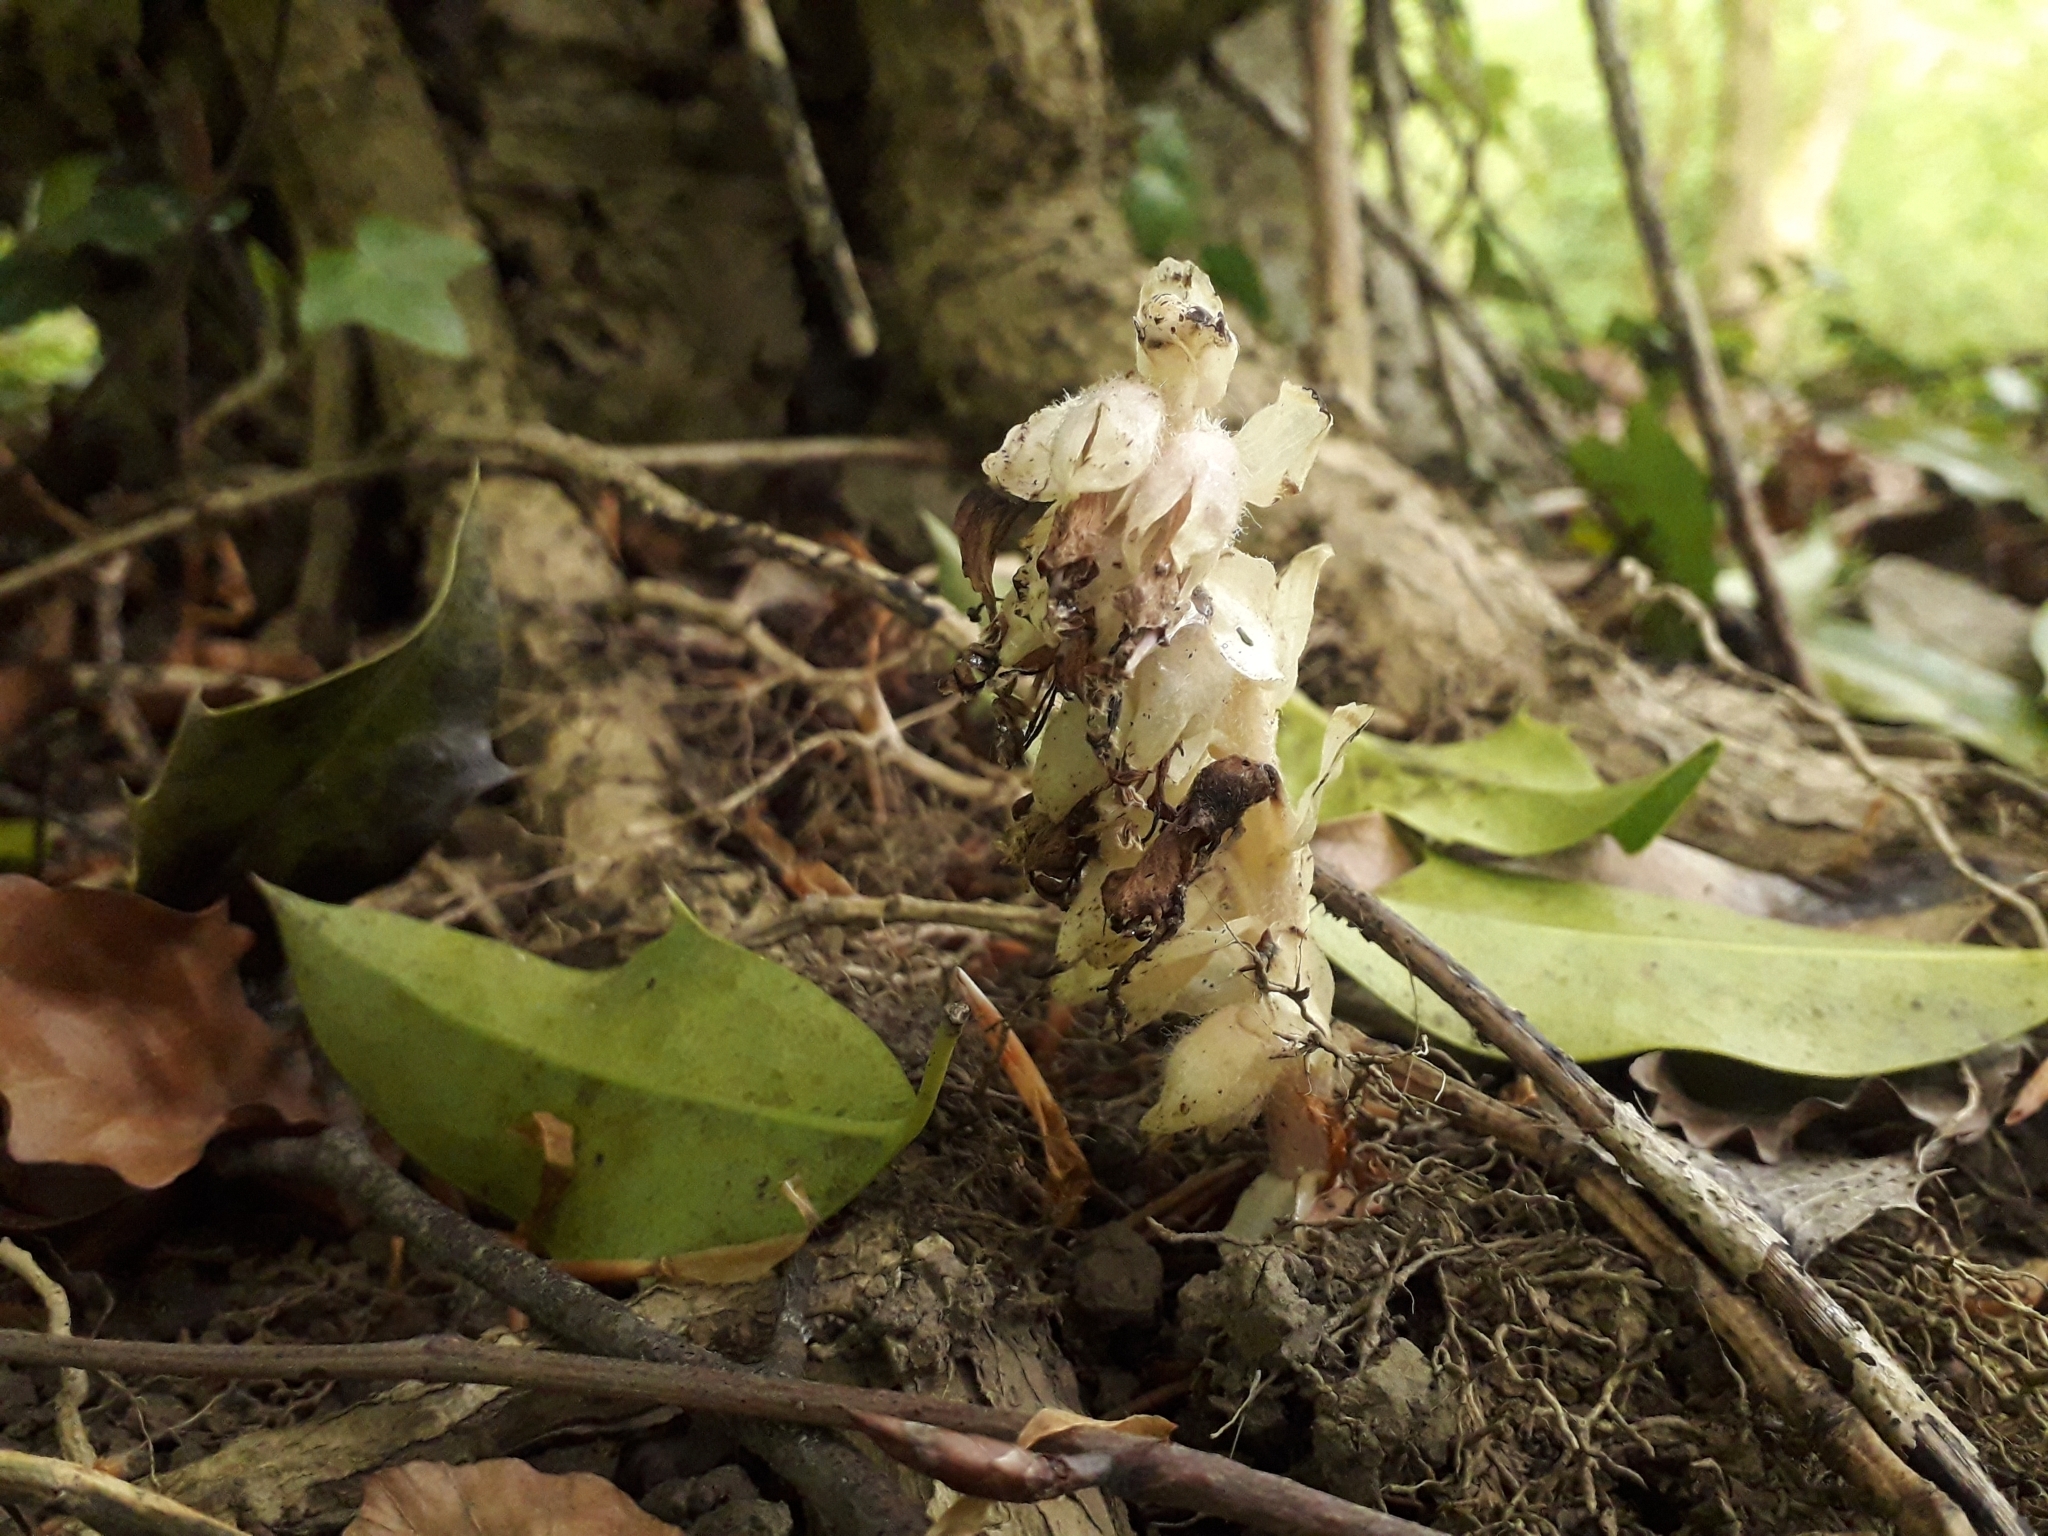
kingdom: Plantae
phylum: Tracheophyta
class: Magnoliopsida
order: Lamiales
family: Orobanchaceae
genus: Lathraea
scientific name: Lathraea squamaria
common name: Toothwort
